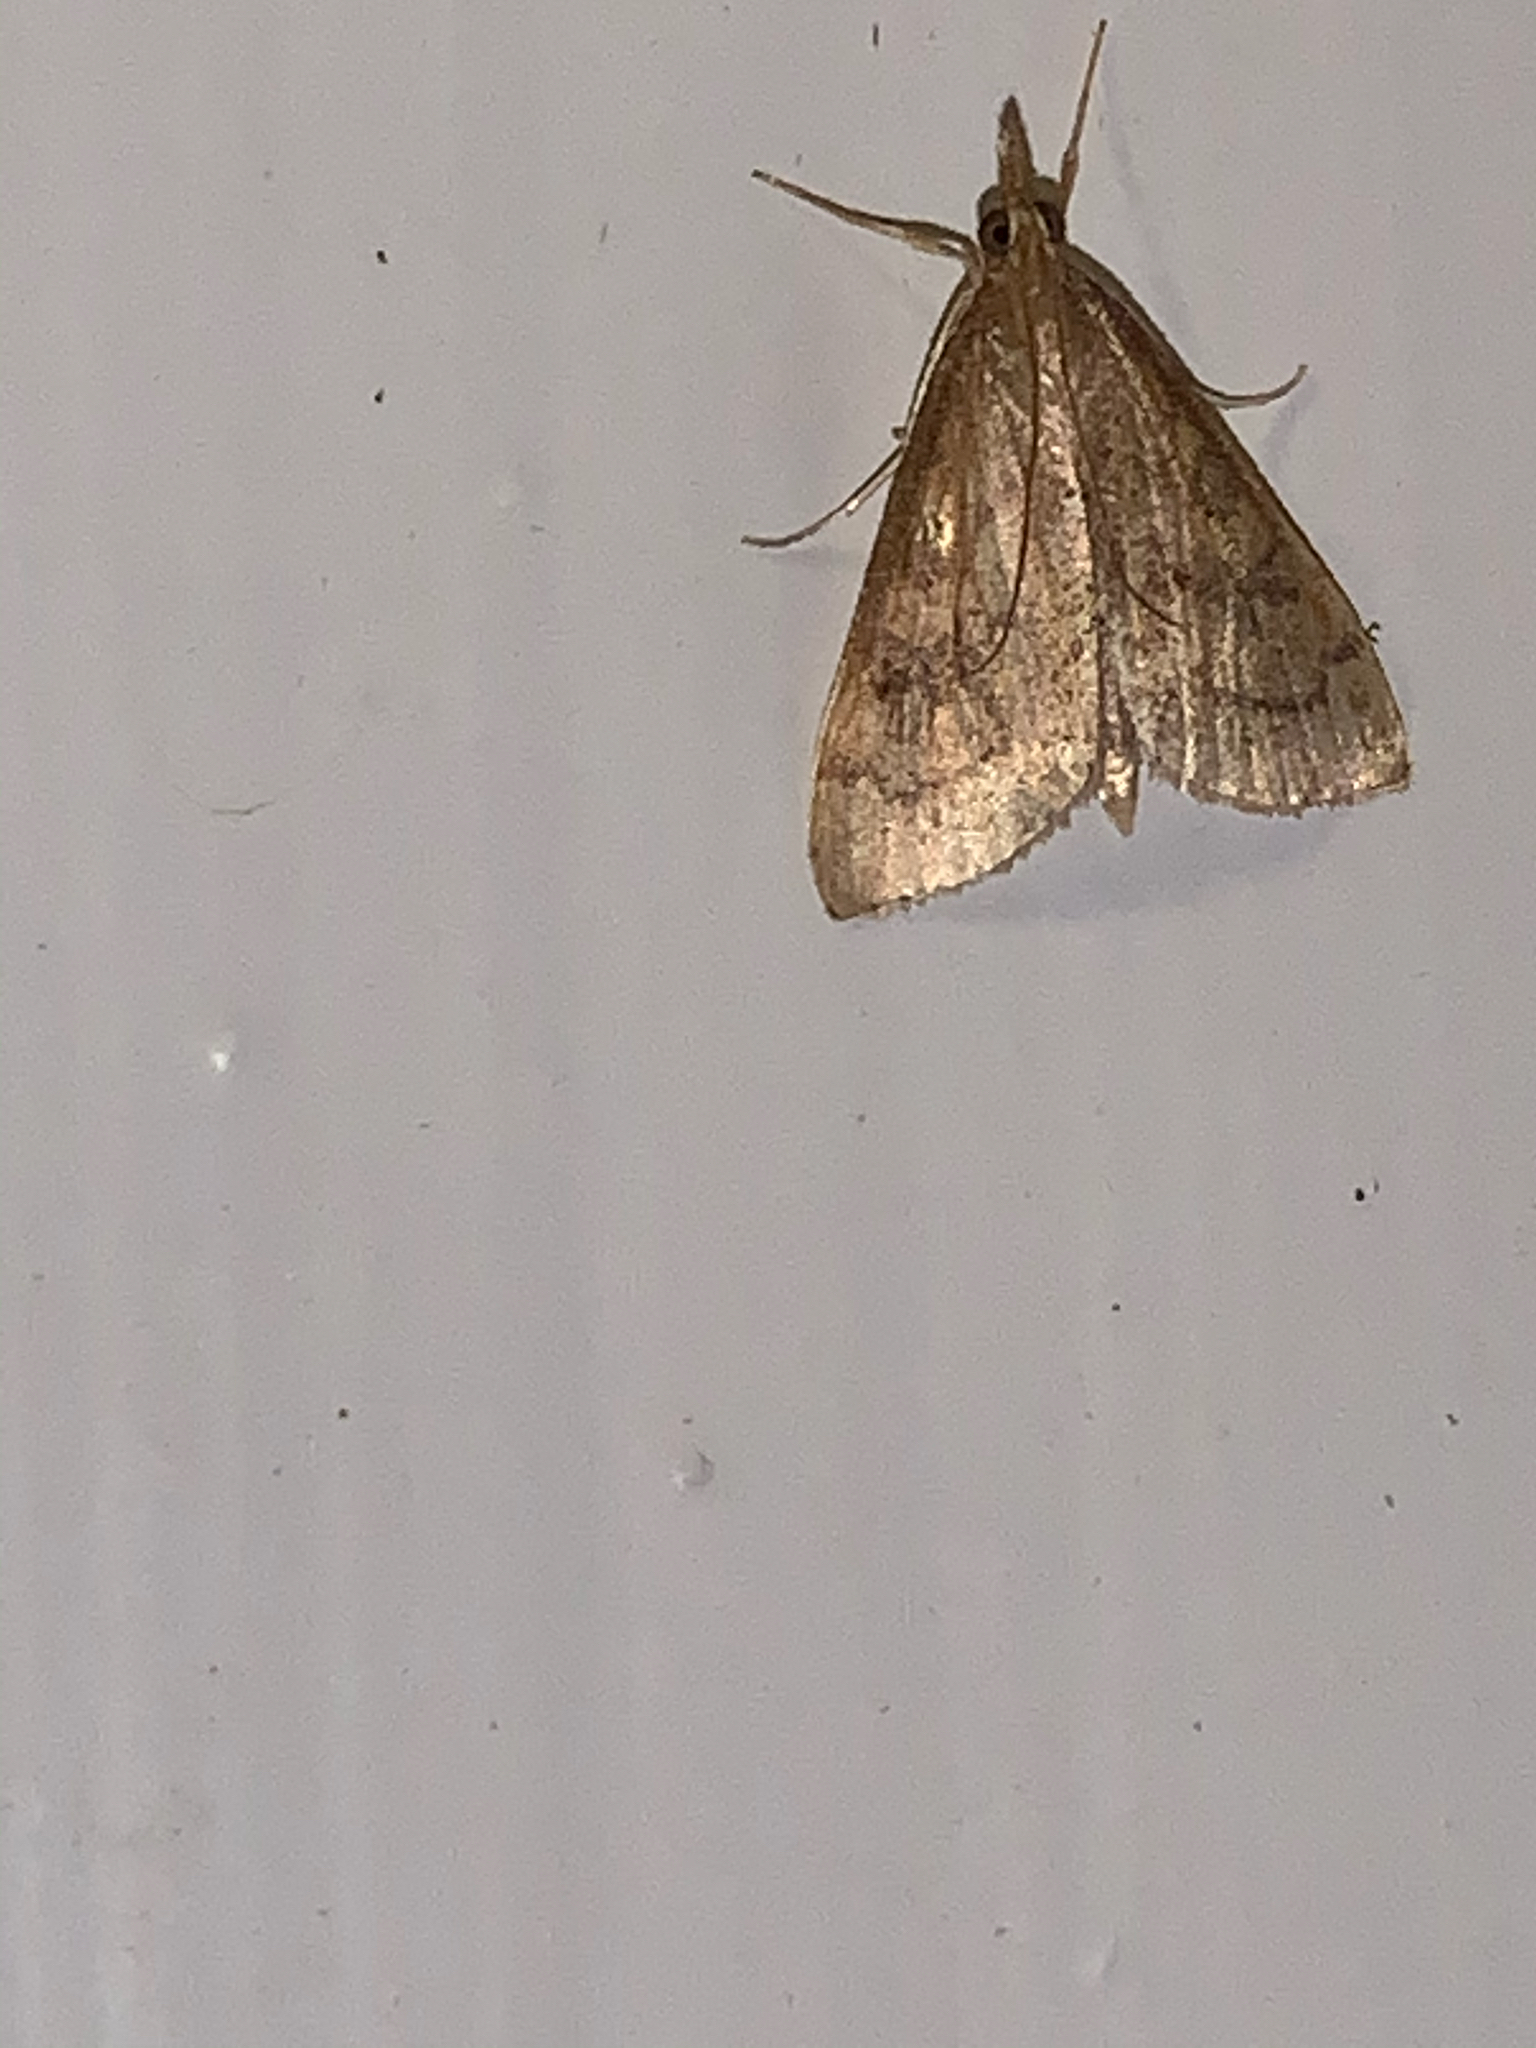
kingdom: Animalia
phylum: Arthropoda
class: Insecta
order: Lepidoptera
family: Crambidae
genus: Udea
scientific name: Udea rubigalis
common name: Celery leaftier moth
